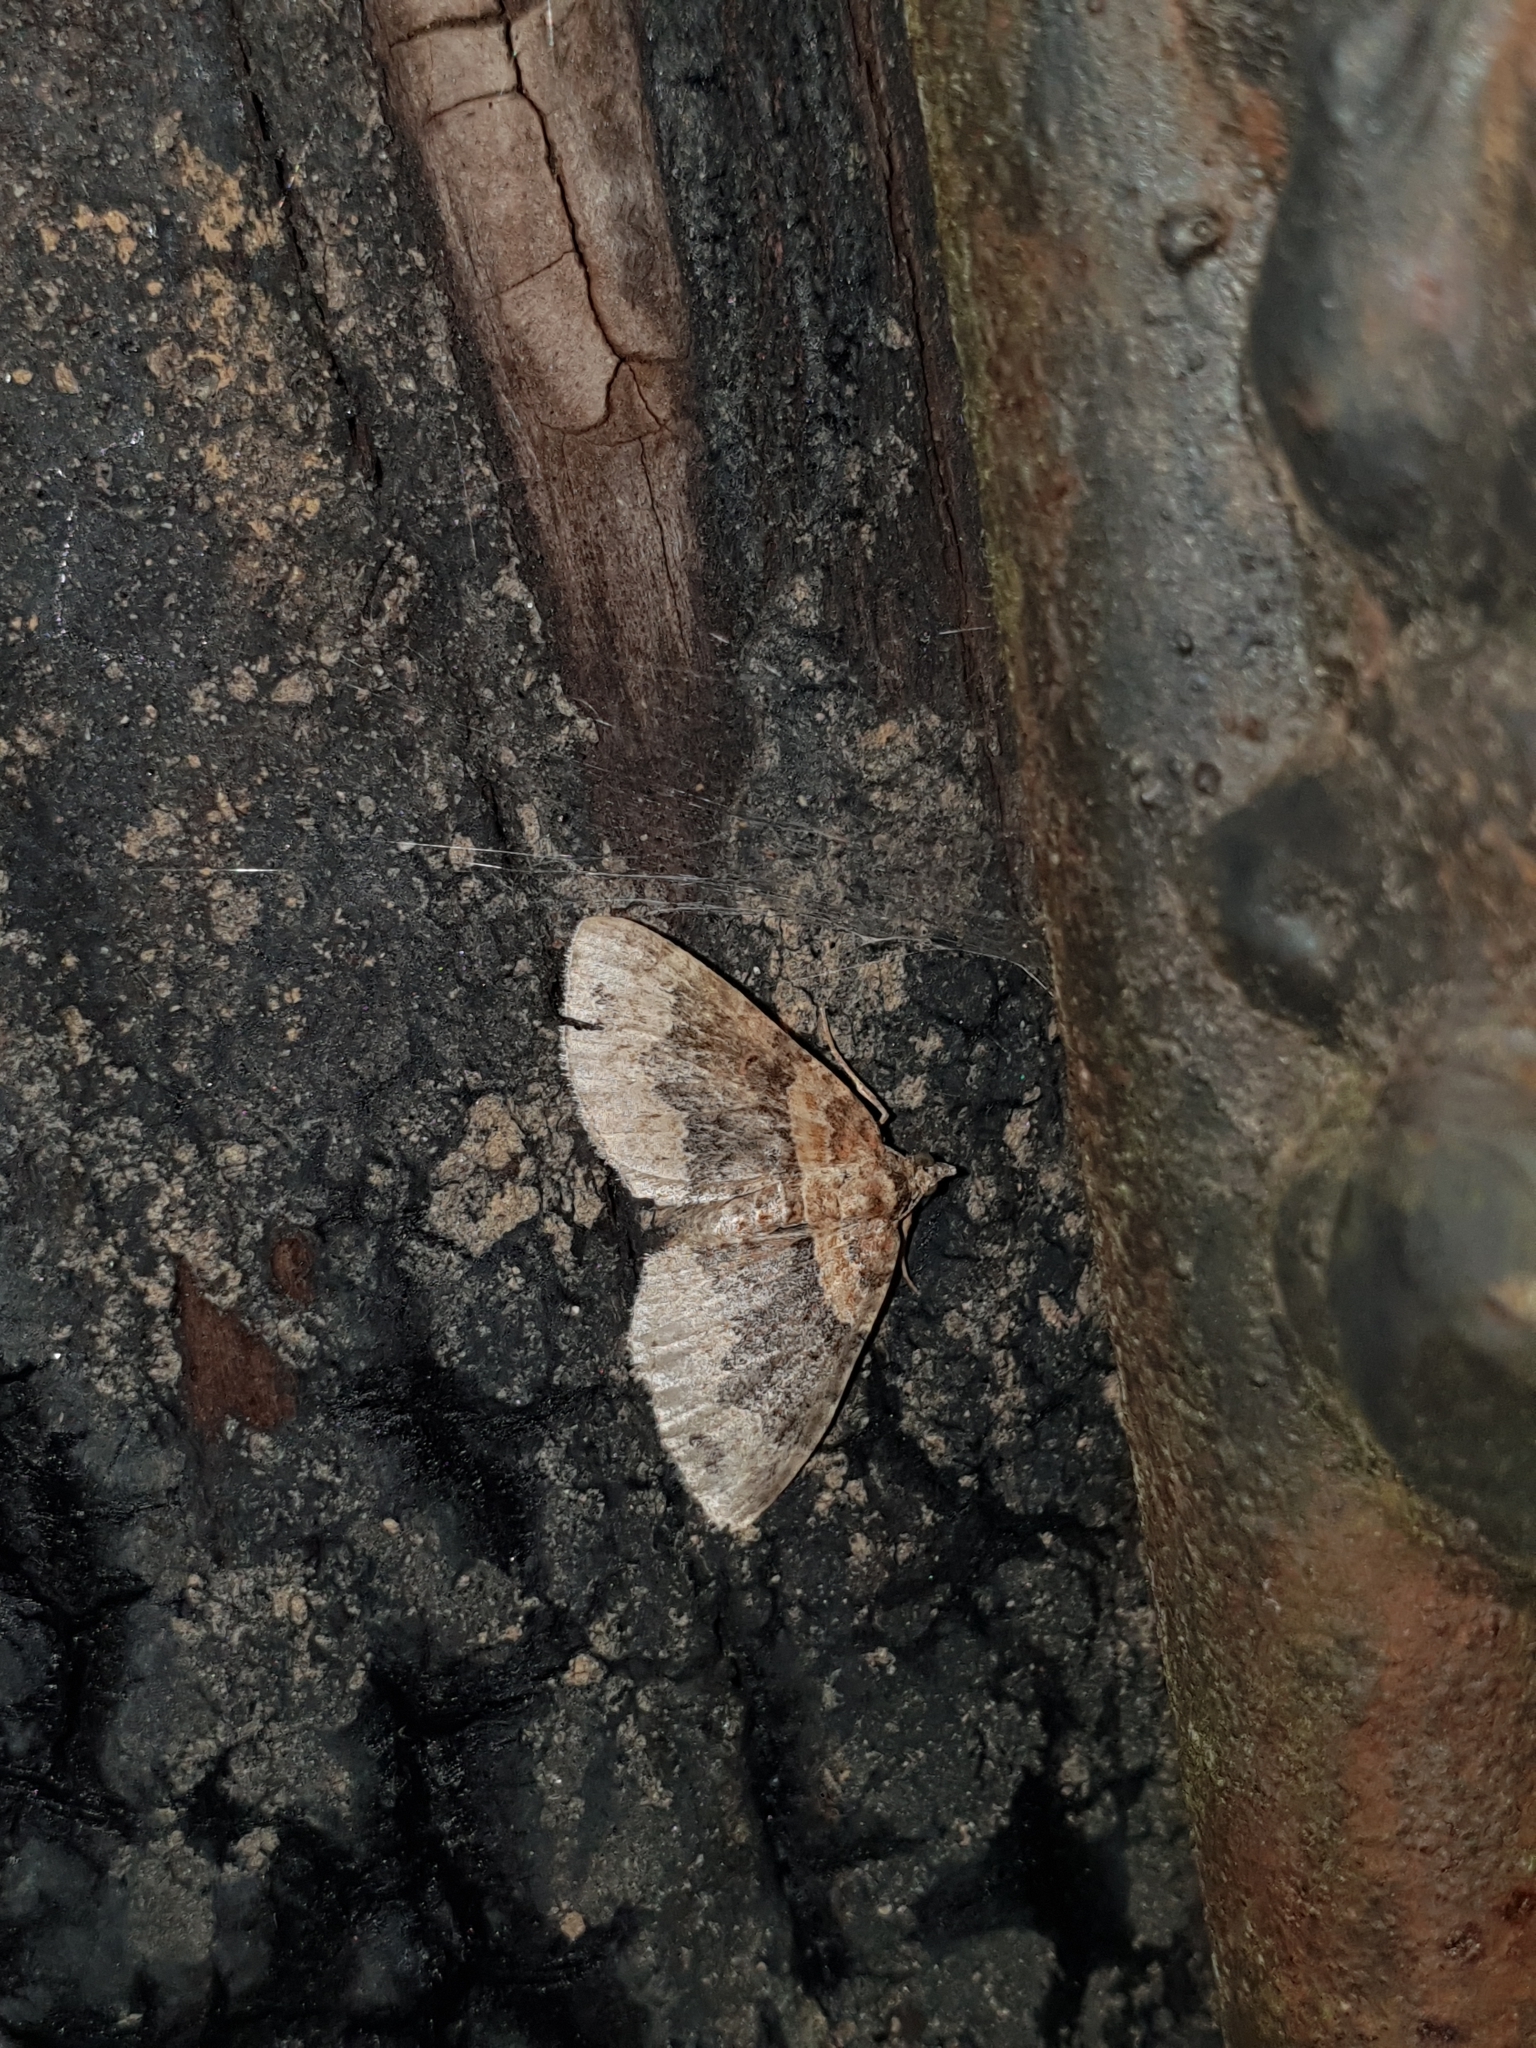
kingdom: Animalia
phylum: Arthropoda
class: Insecta
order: Lepidoptera
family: Geometridae
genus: Xanthorhoe
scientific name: Xanthorhoe ferrugata
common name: Dark-barred twin-spot carpet
